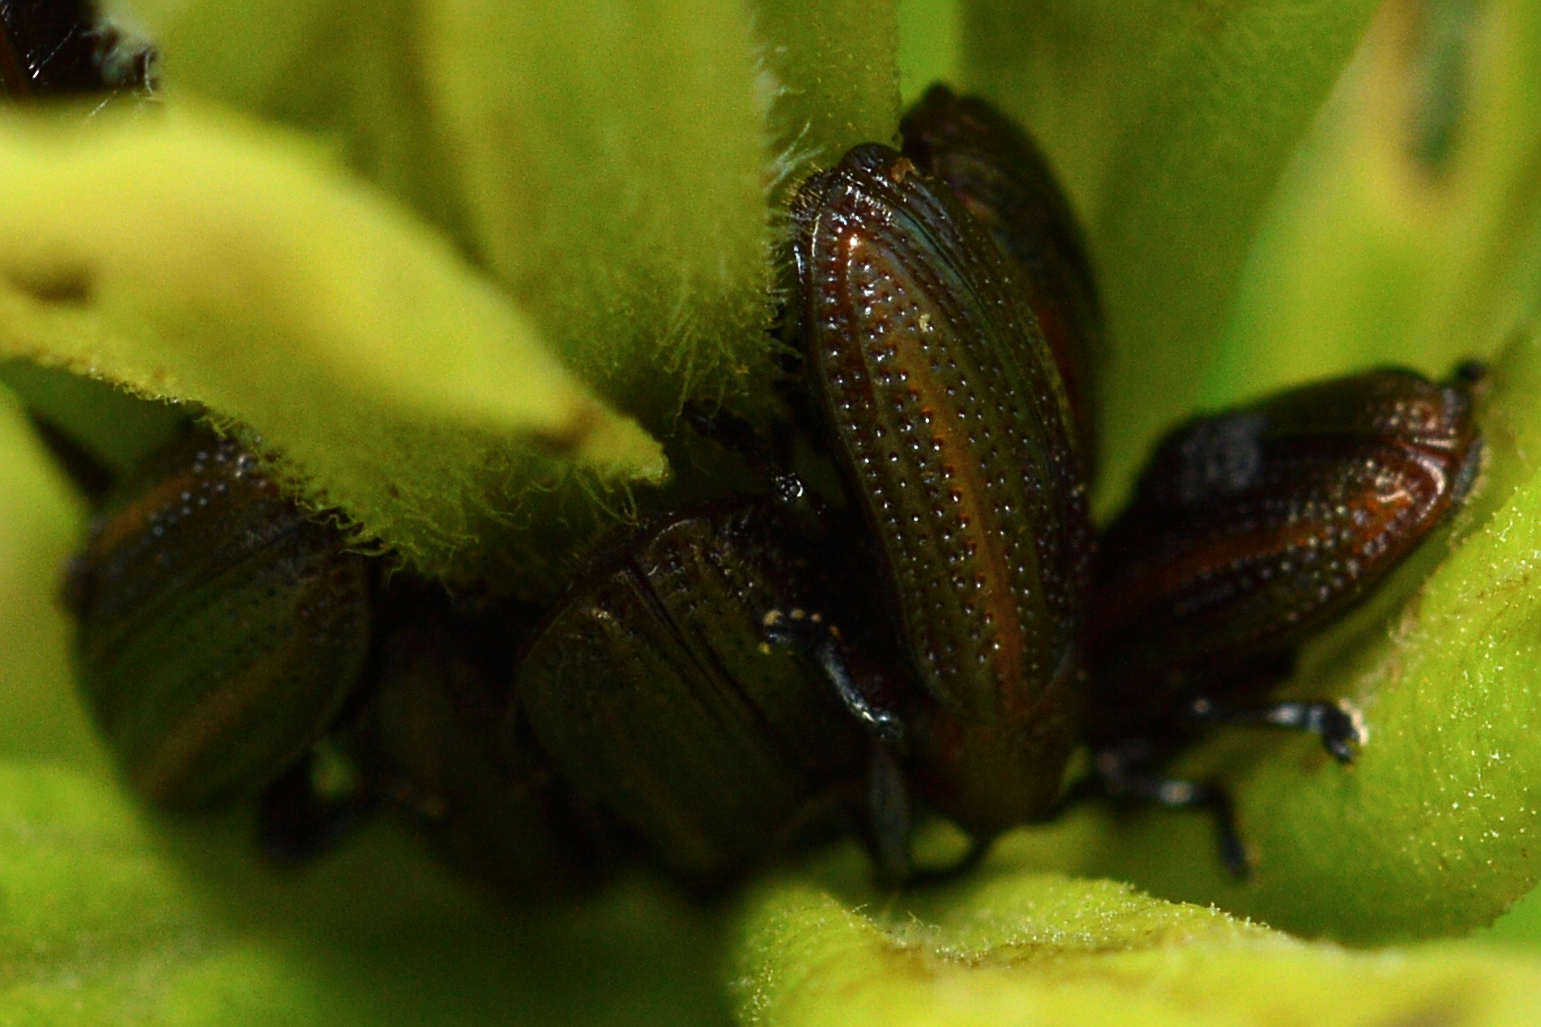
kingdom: Animalia
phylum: Arthropoda
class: Insecta
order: Coleoptera
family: Chrysomelidae
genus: Microrhopala
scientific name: Microrhopala vittata
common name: Goldenrod leaf miner beetle
